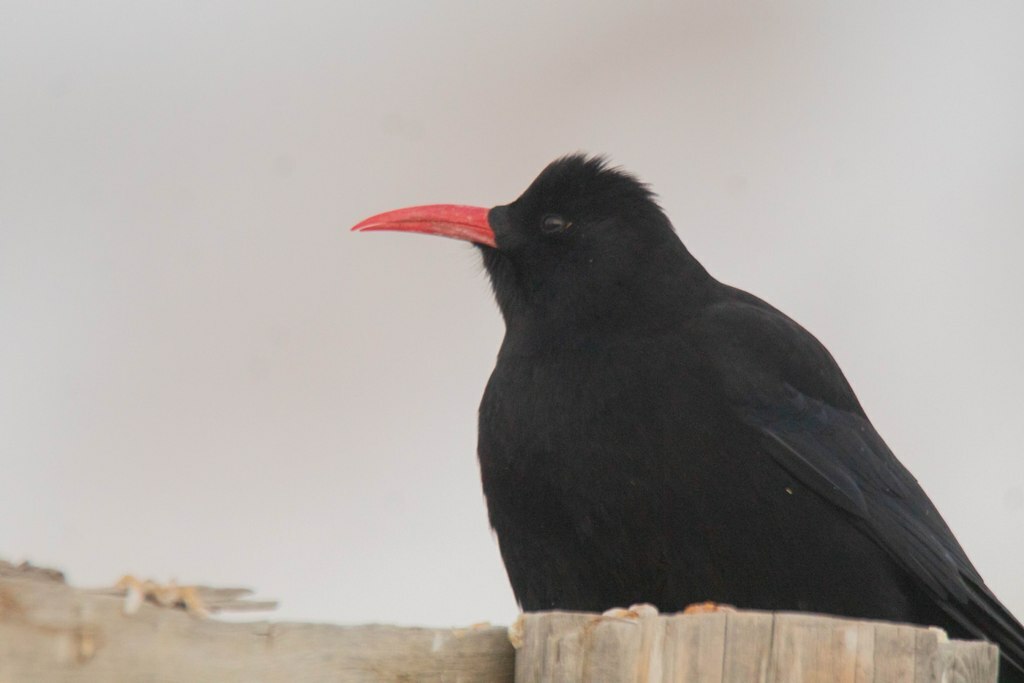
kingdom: Animalia
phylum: Chordata
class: Aves
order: Passeriformes
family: Corvidae
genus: Pyrrhocorax
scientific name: Pyrrhocorax pyrrhocorax
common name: Red-billed chough
